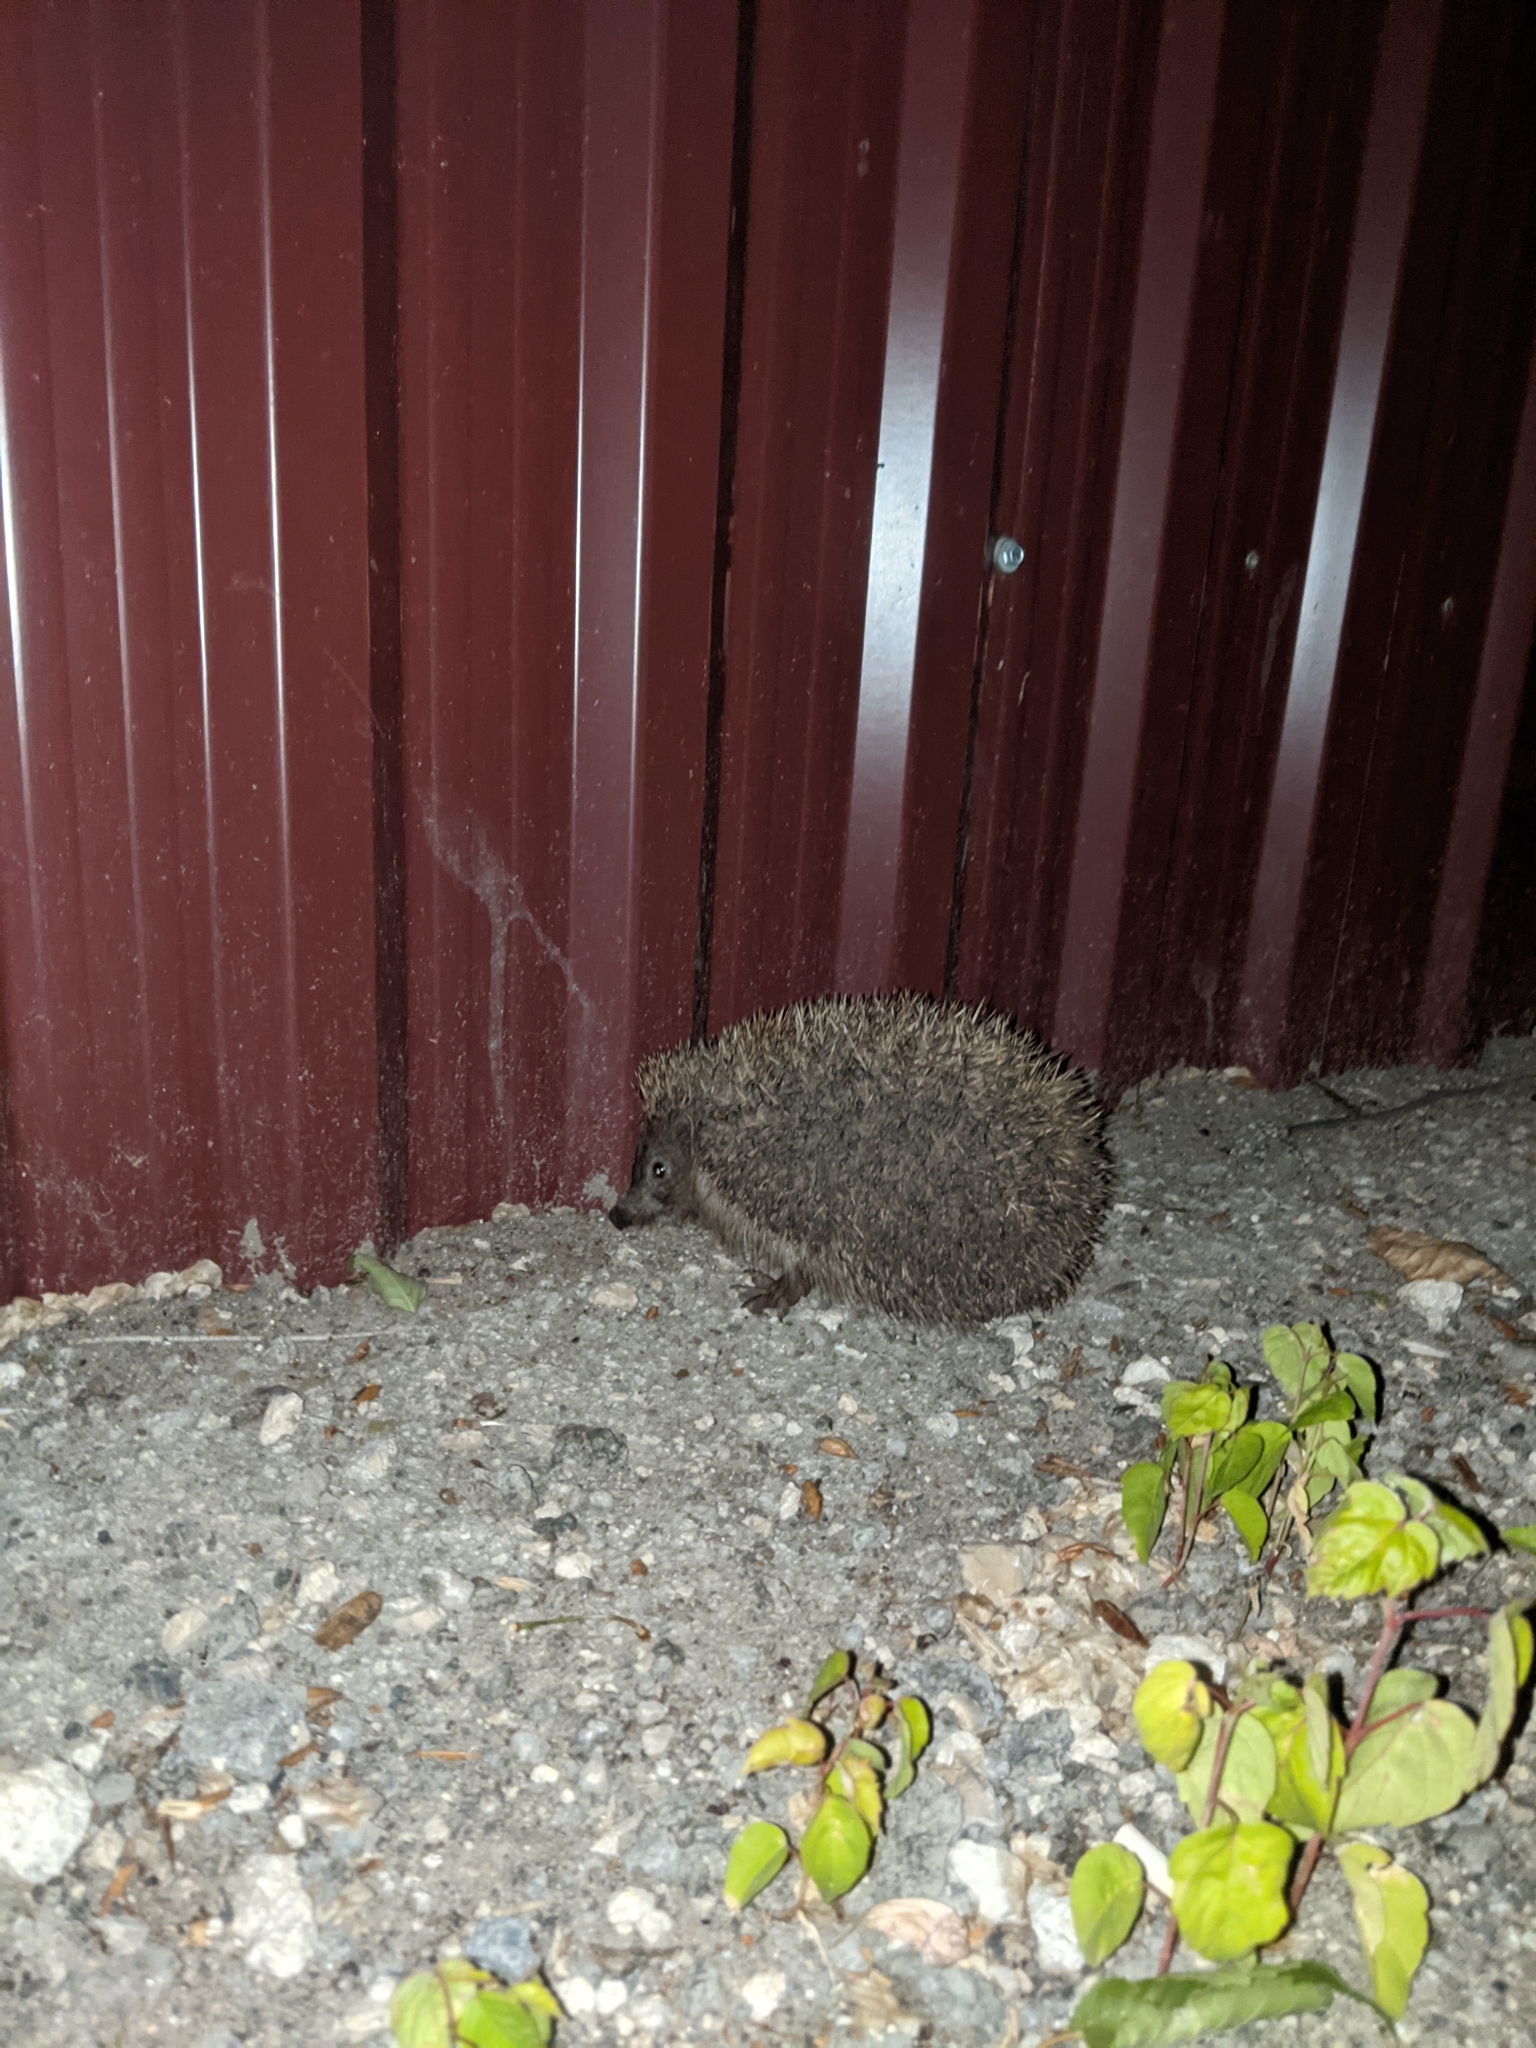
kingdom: Animalia
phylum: Chordata
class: Mammalia
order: Erinaceomorpha
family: Erinaceidae
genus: Erinaceus
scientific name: Erinaceus roumanicus
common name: Northern white-breasted hedgehog
